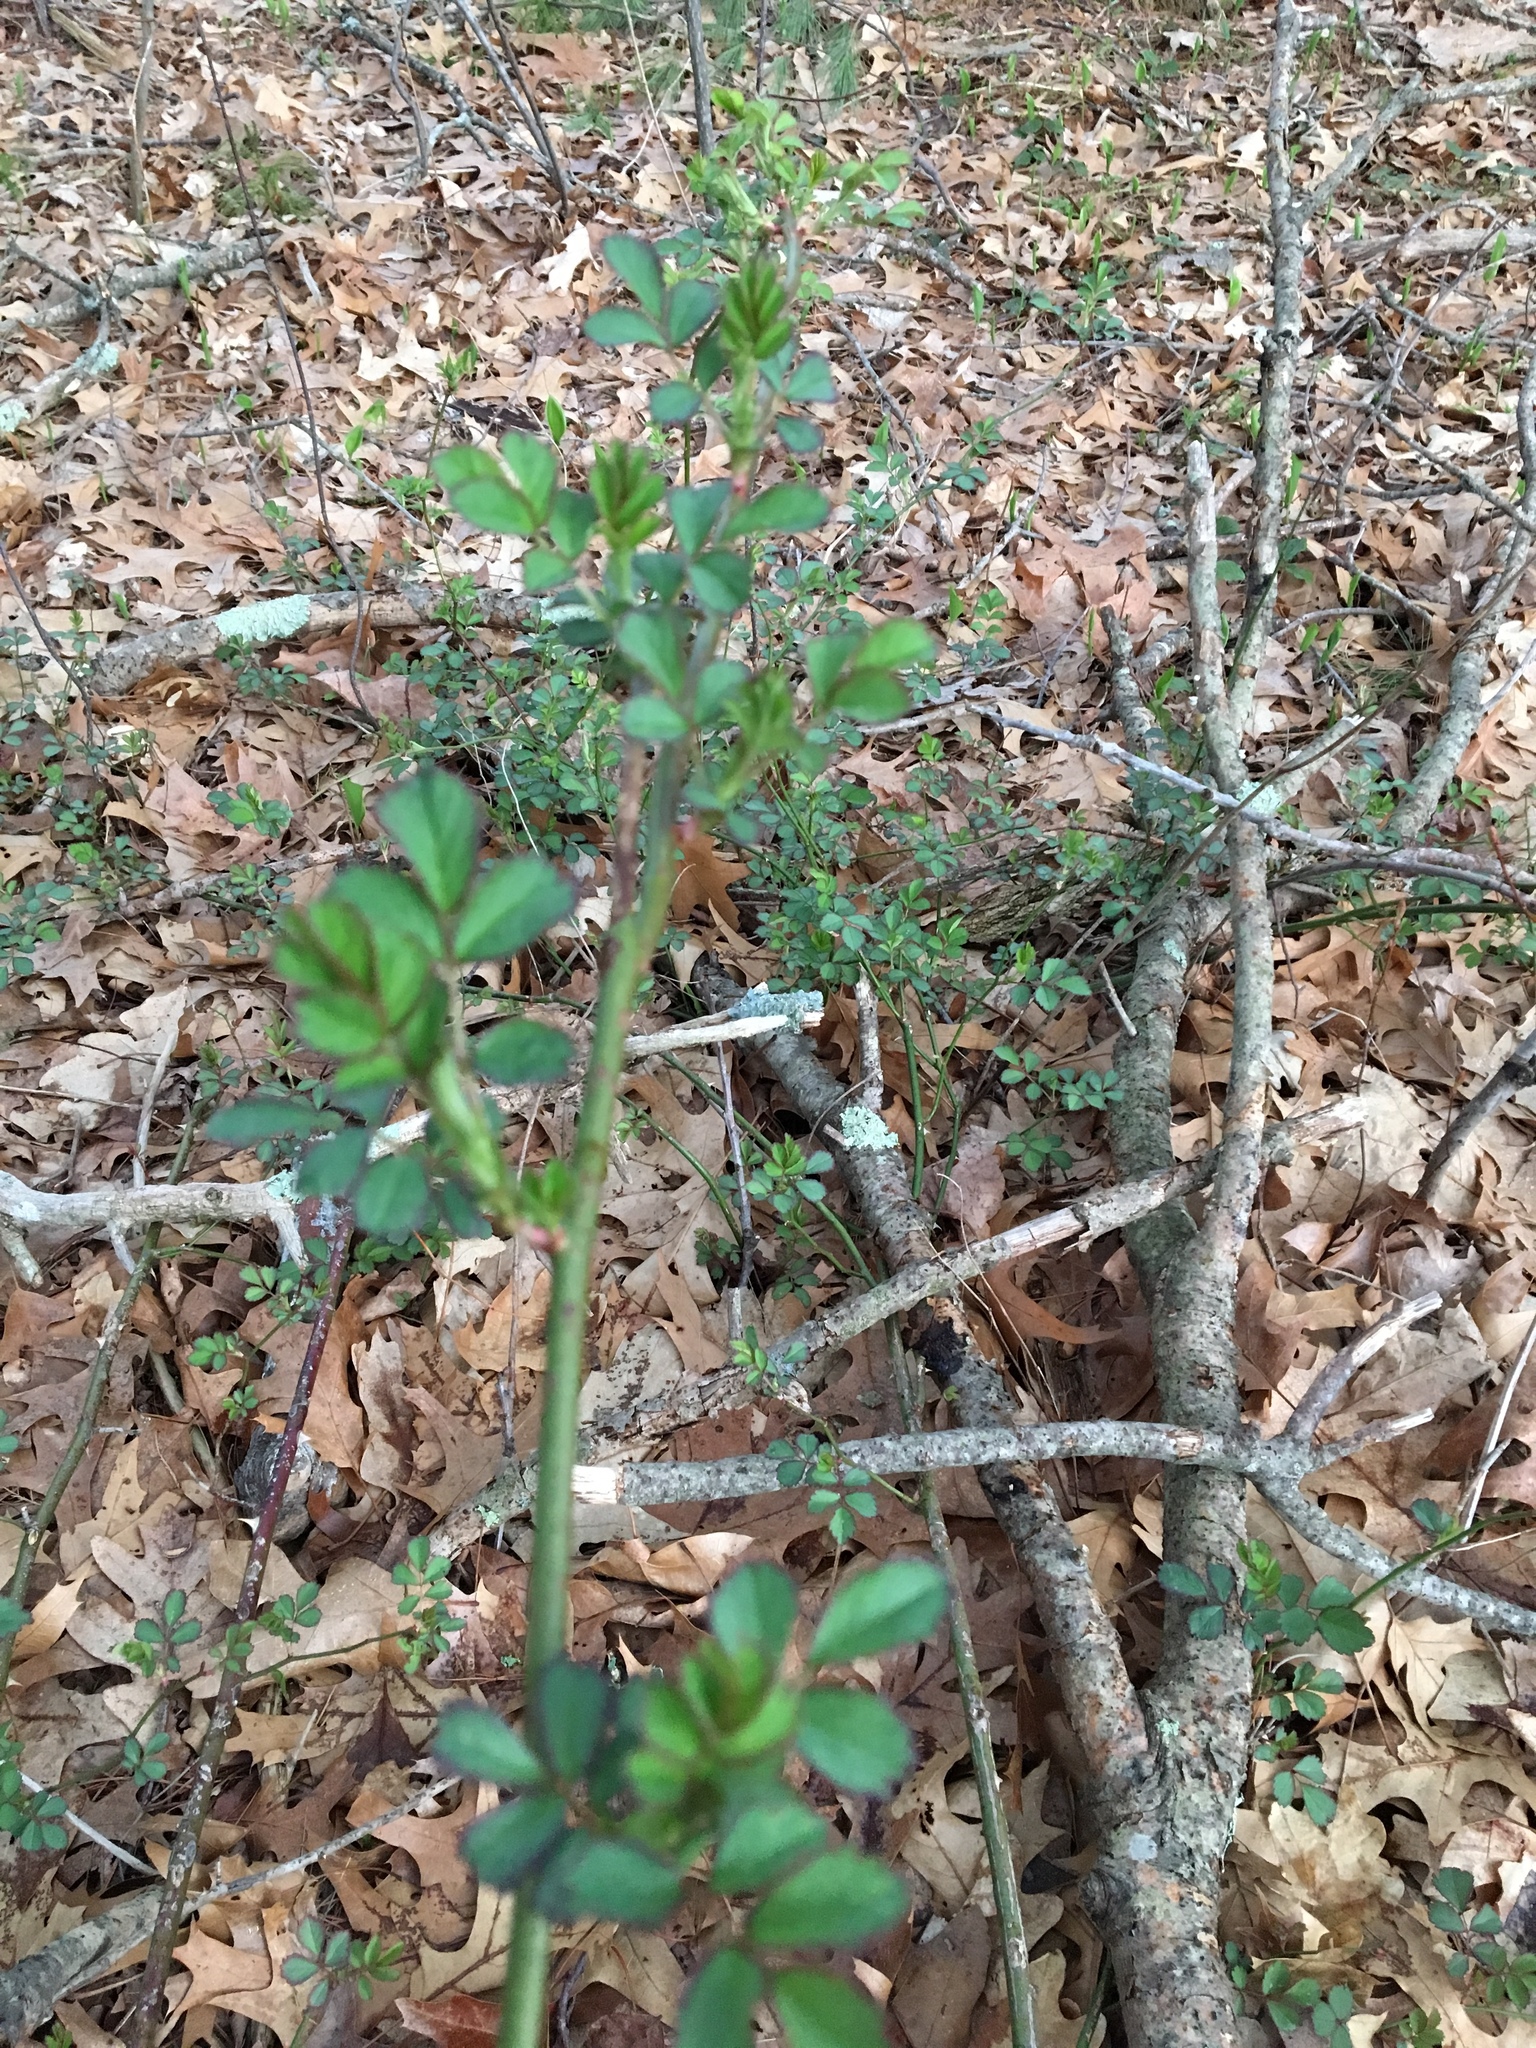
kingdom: Plantae
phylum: Tracheophyta
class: Magnoliopsida
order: Rosales
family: Rosaceae
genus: Rosa
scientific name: Rosa multiflora
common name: Multiflora rose
